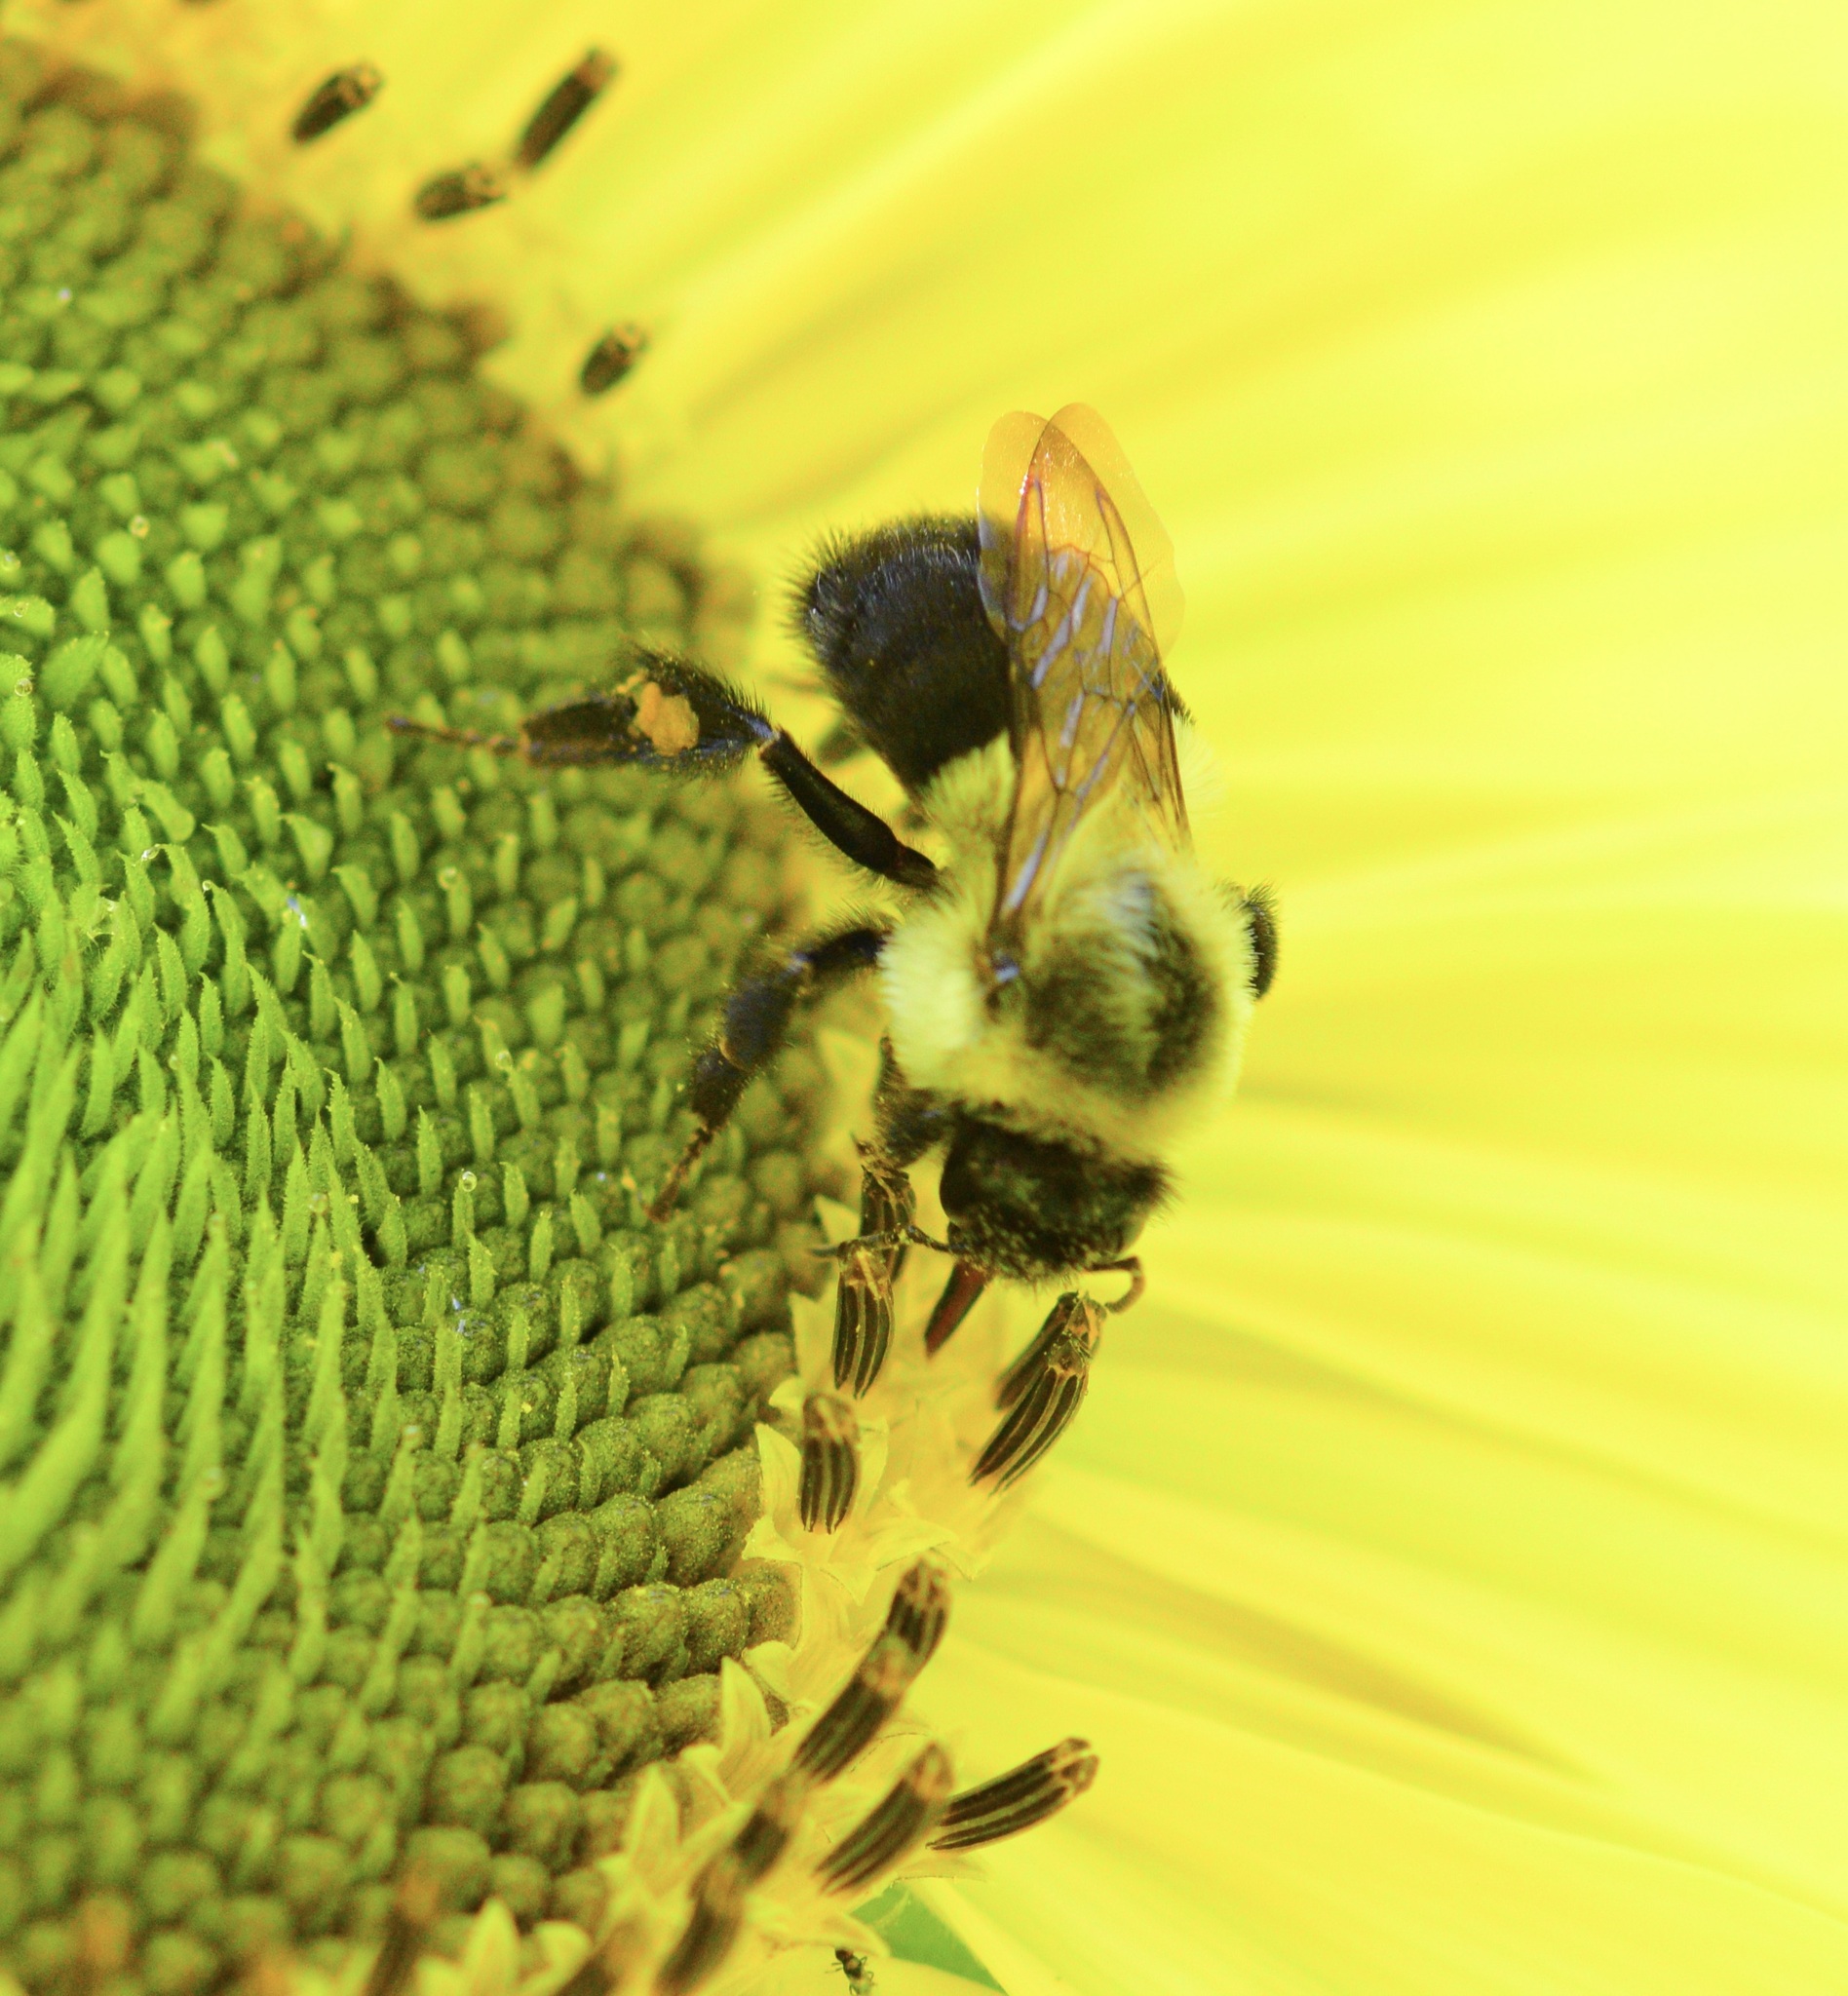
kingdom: Animalia
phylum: Arthropoda
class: Insecta
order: Hymenoptera
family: Apidae
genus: Bombus
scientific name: Bombus impatiens
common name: Common eastern bumble bee
